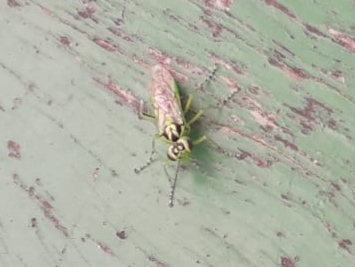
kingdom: Animalia
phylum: Arthropoda
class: Insecta
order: Hymenoptera
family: Tenthredinidae
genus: Rhogogaster
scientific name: Rhogogaster
